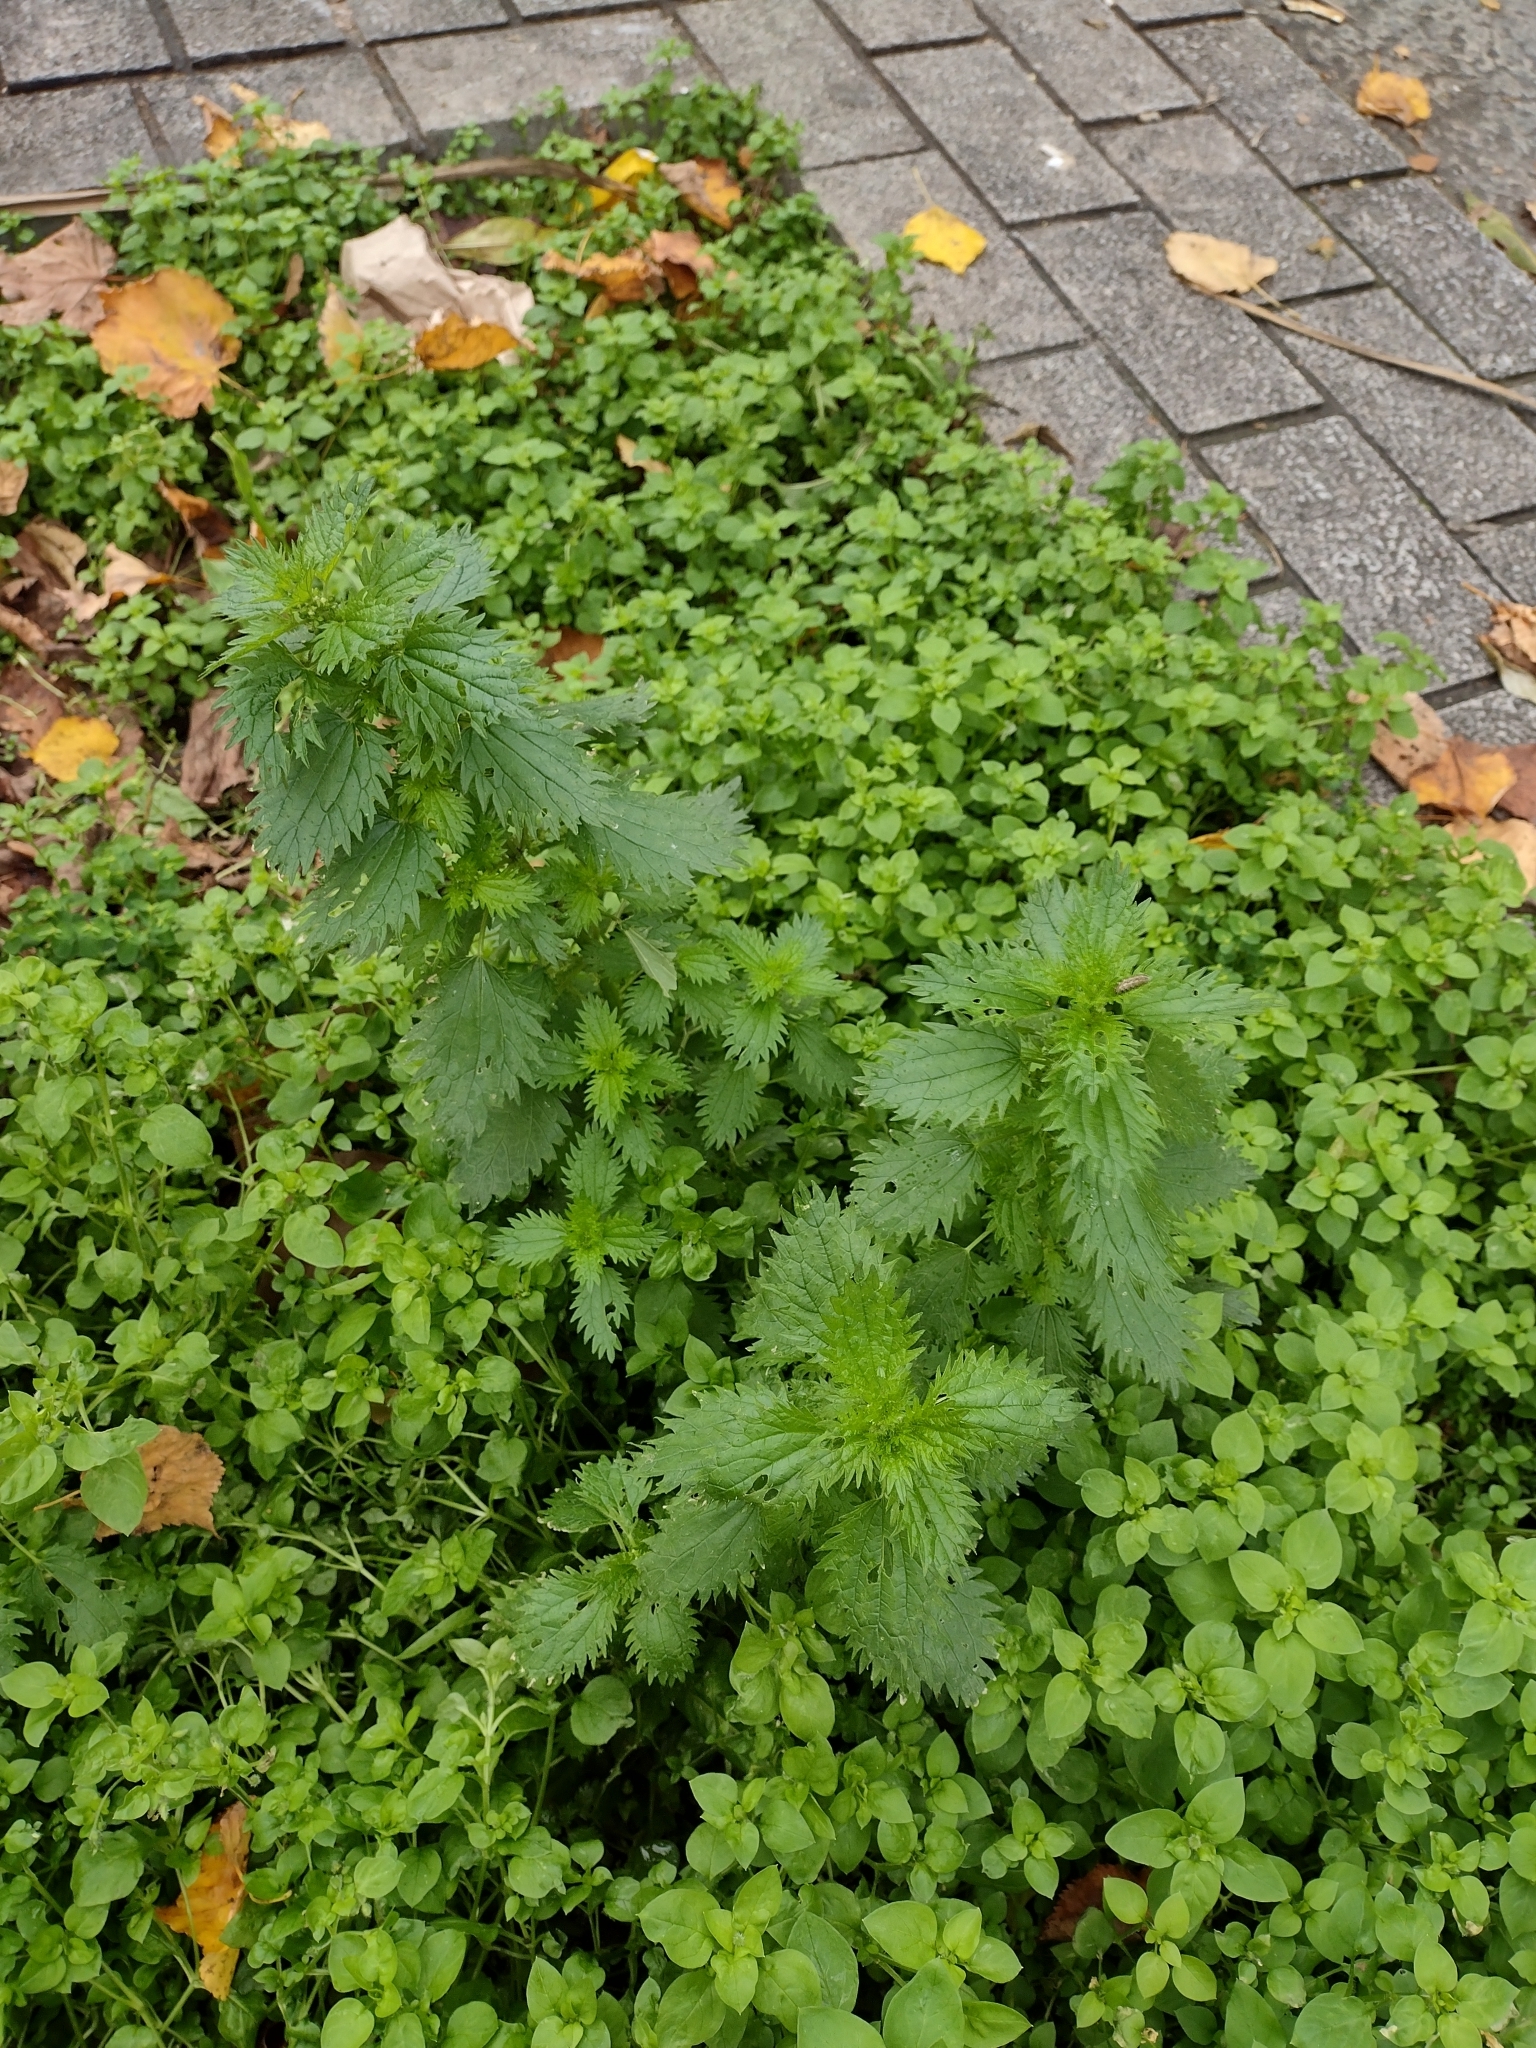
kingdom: Plantae
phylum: Tracheophyta
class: Magnoliopsida
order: Rosales
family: Urticaceae
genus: Urtica
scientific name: Urtica urens
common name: Dwarf nettle
